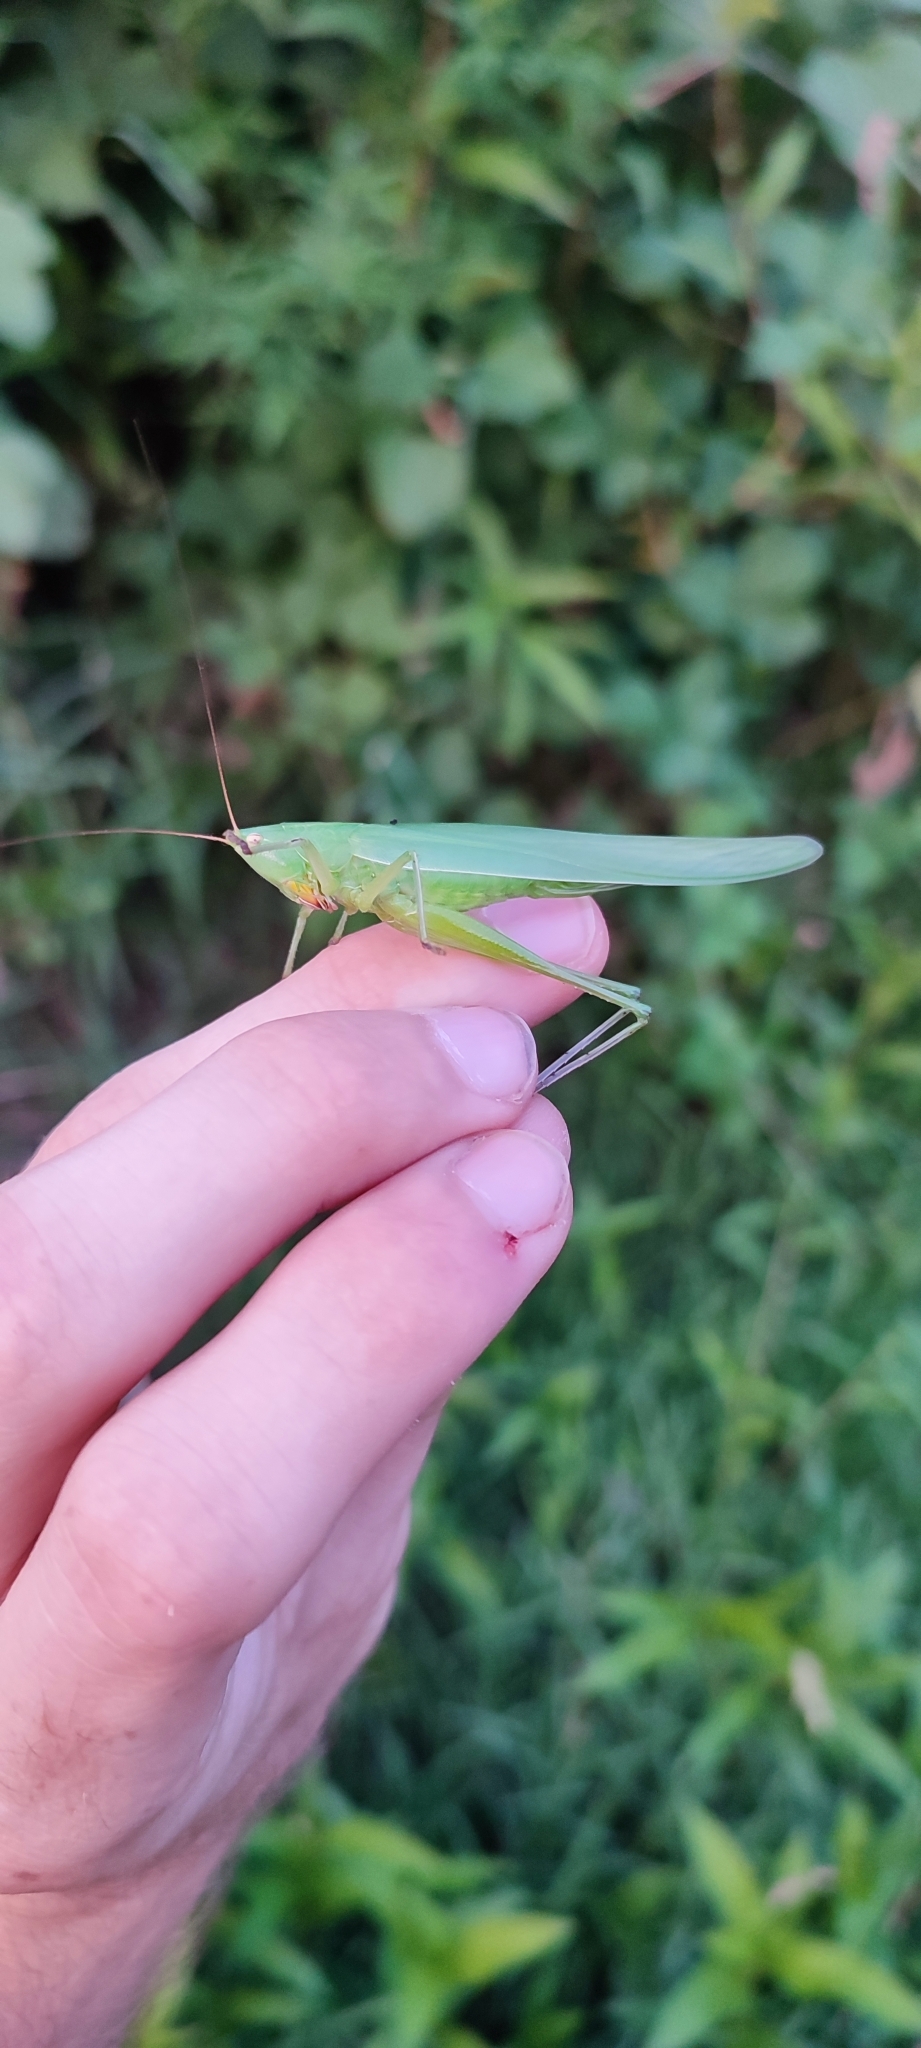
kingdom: Animalia
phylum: Arthropoda
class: Insecta
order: Orthoptera
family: Tettigoniidae
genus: Ruspolia
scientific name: Ruspolia nitidula
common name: Large conehead
